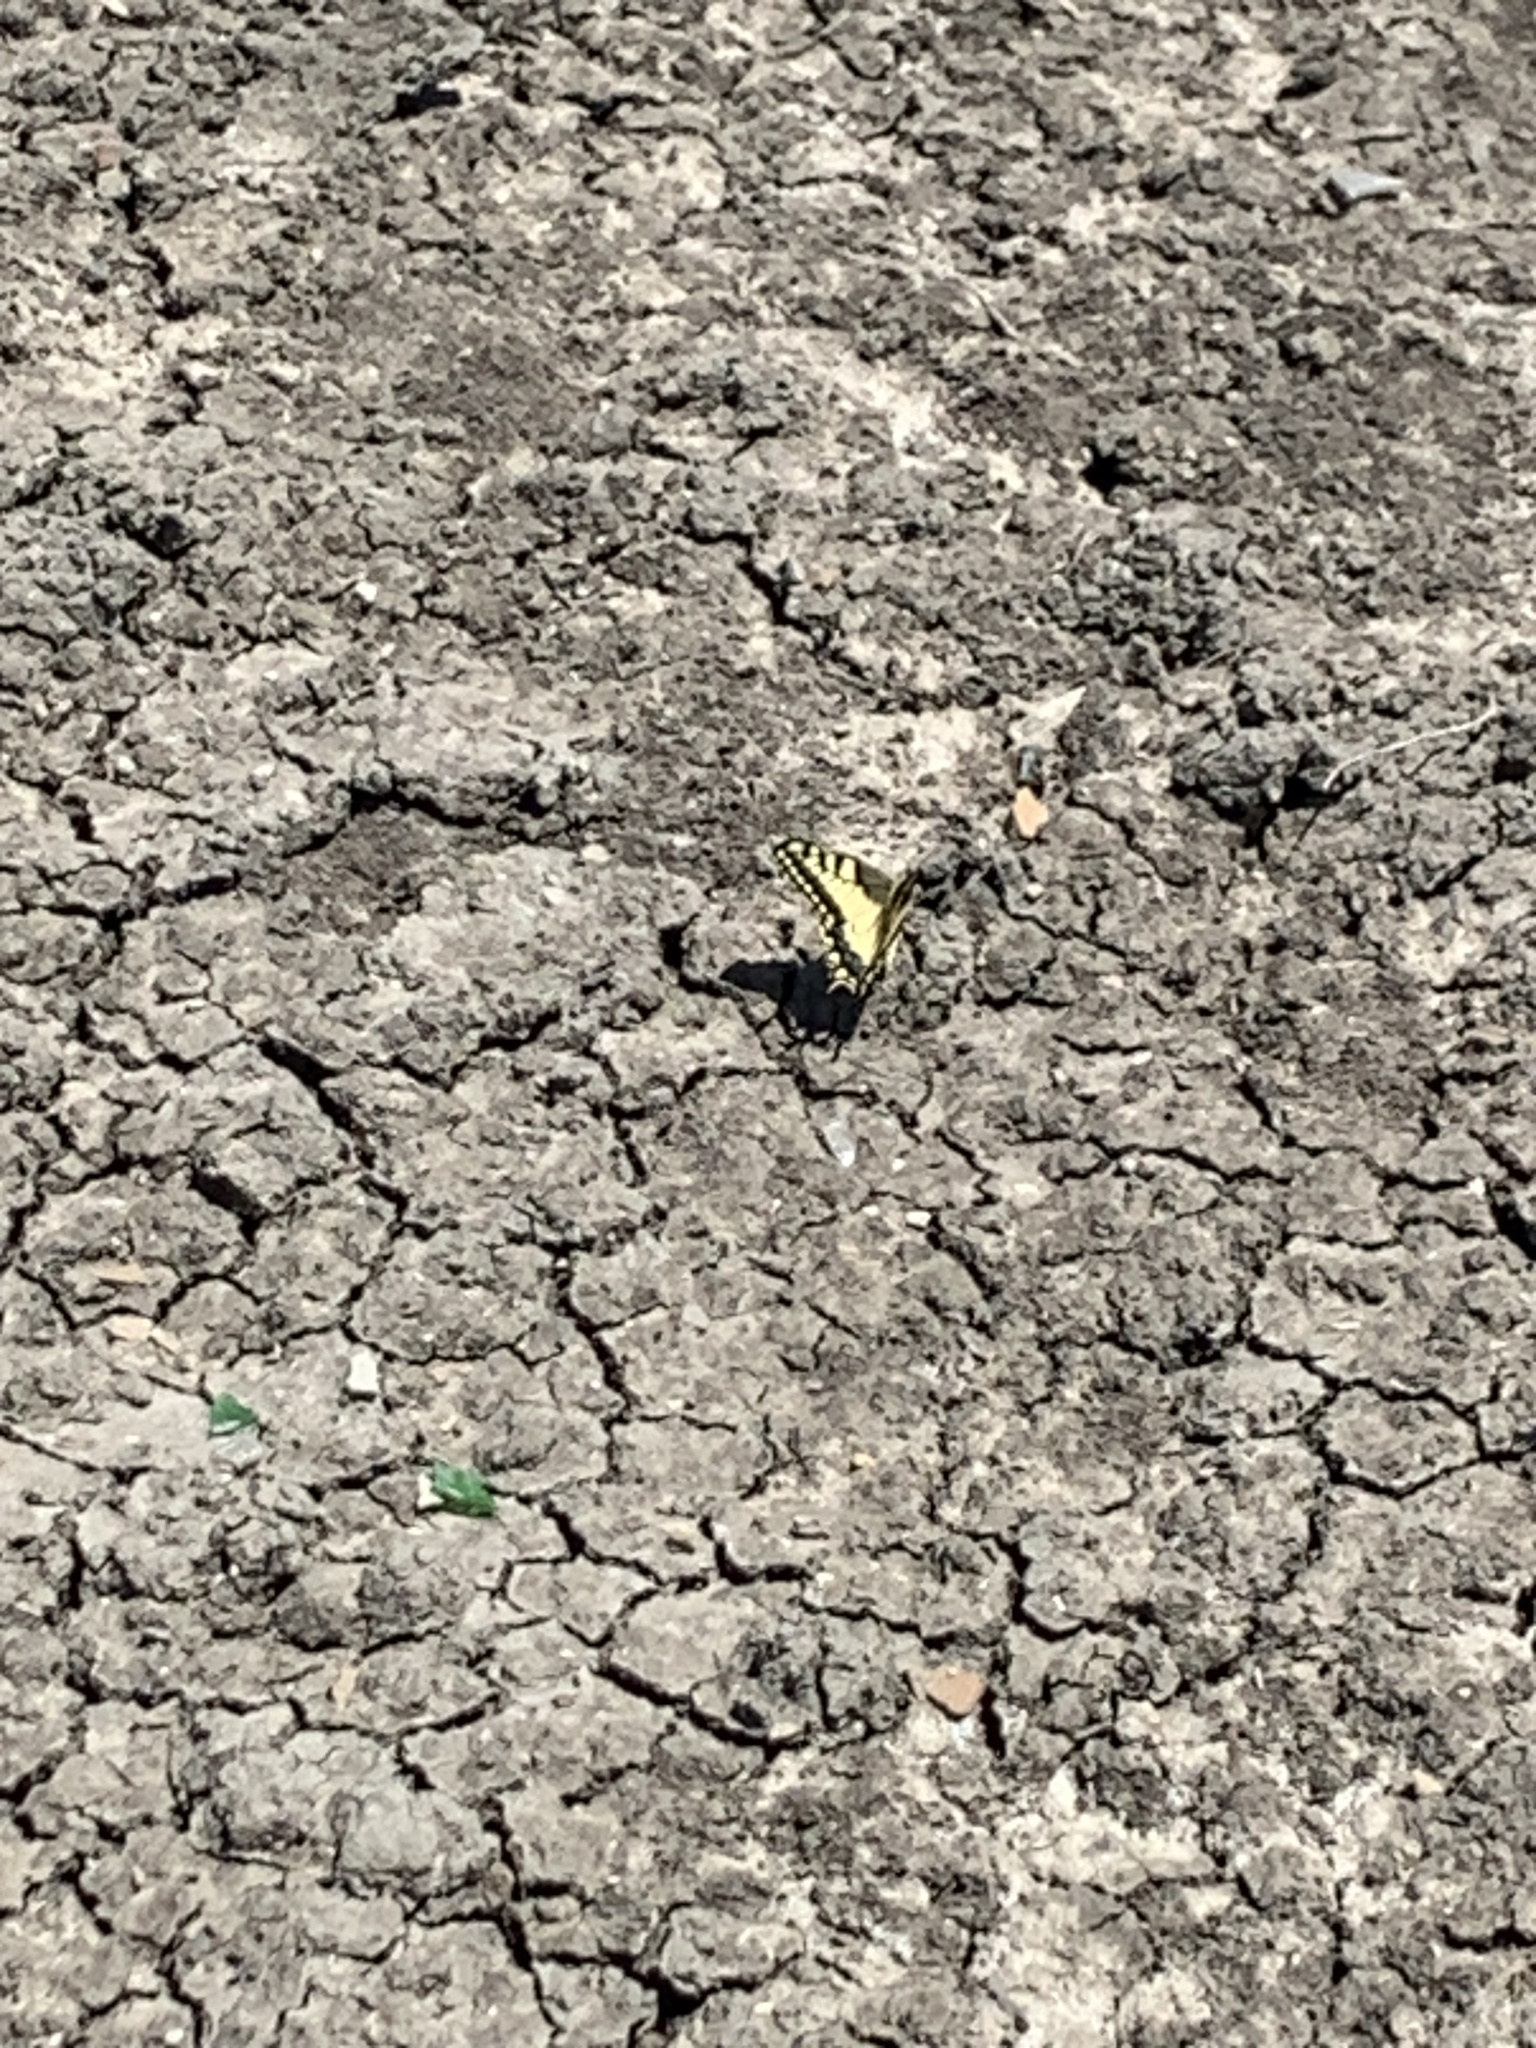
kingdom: Animalia
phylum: Arthropoda
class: Insecta
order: Lepidoptera
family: Papilionidae
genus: Papilio
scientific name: Papilio machaon
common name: Swallowtail
